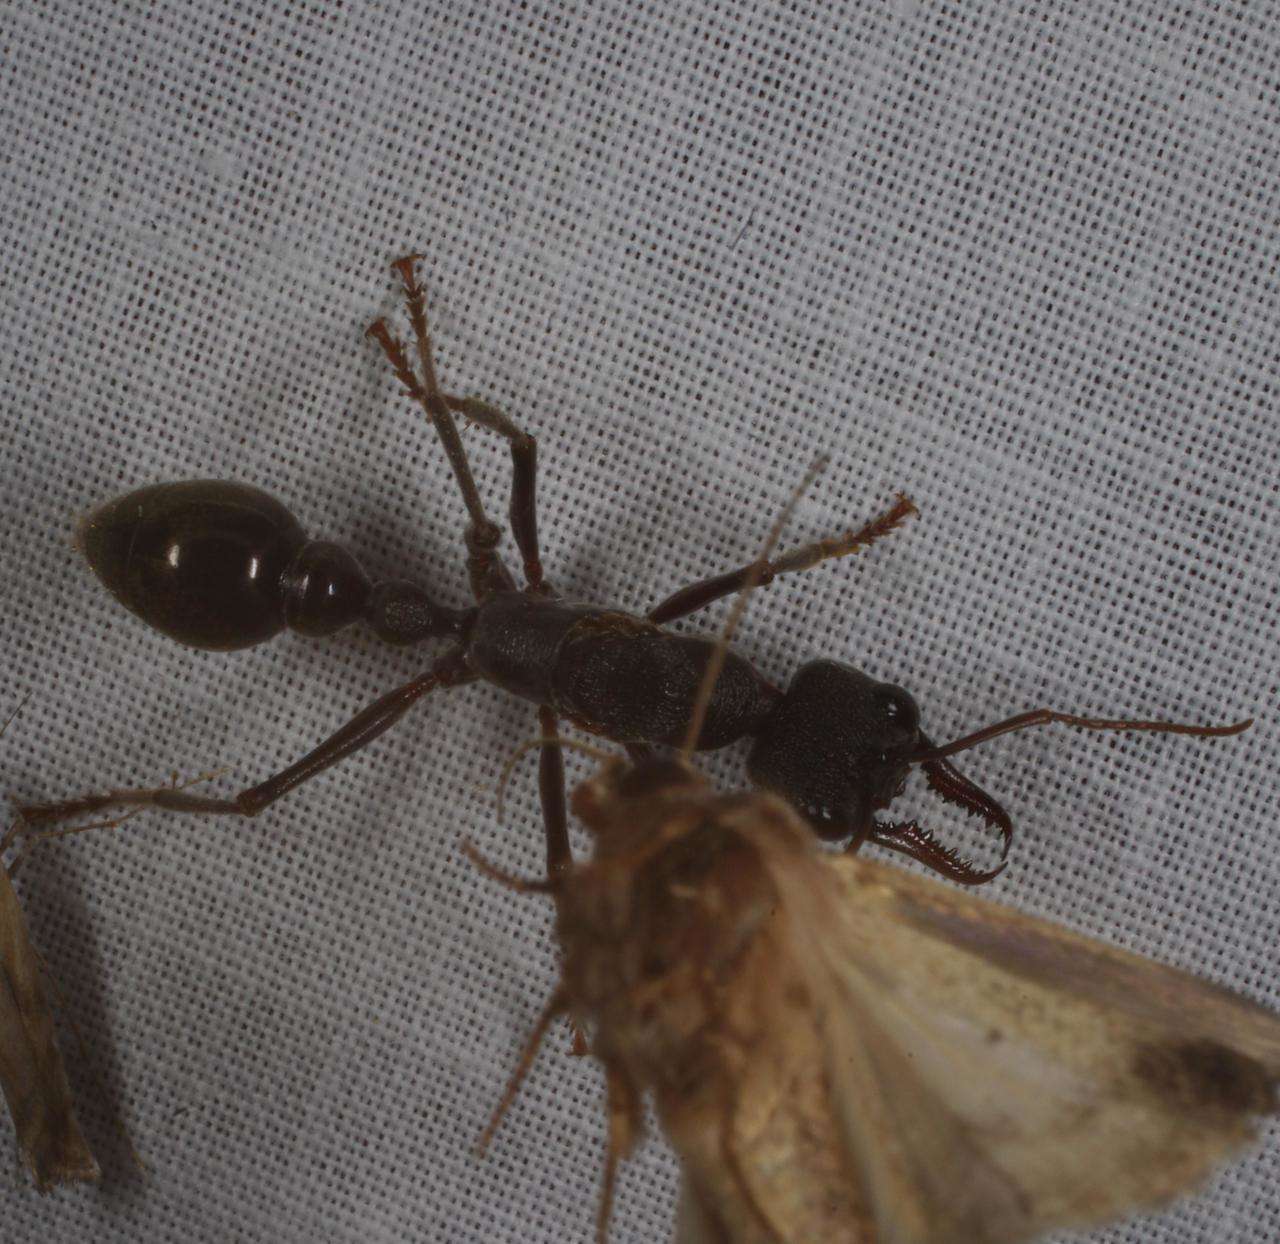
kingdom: Animalia
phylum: Arthropoda
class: Insecta
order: Hymenoptera
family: Formicidae
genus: Myrmecia
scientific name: Myrmecia pyriformis
